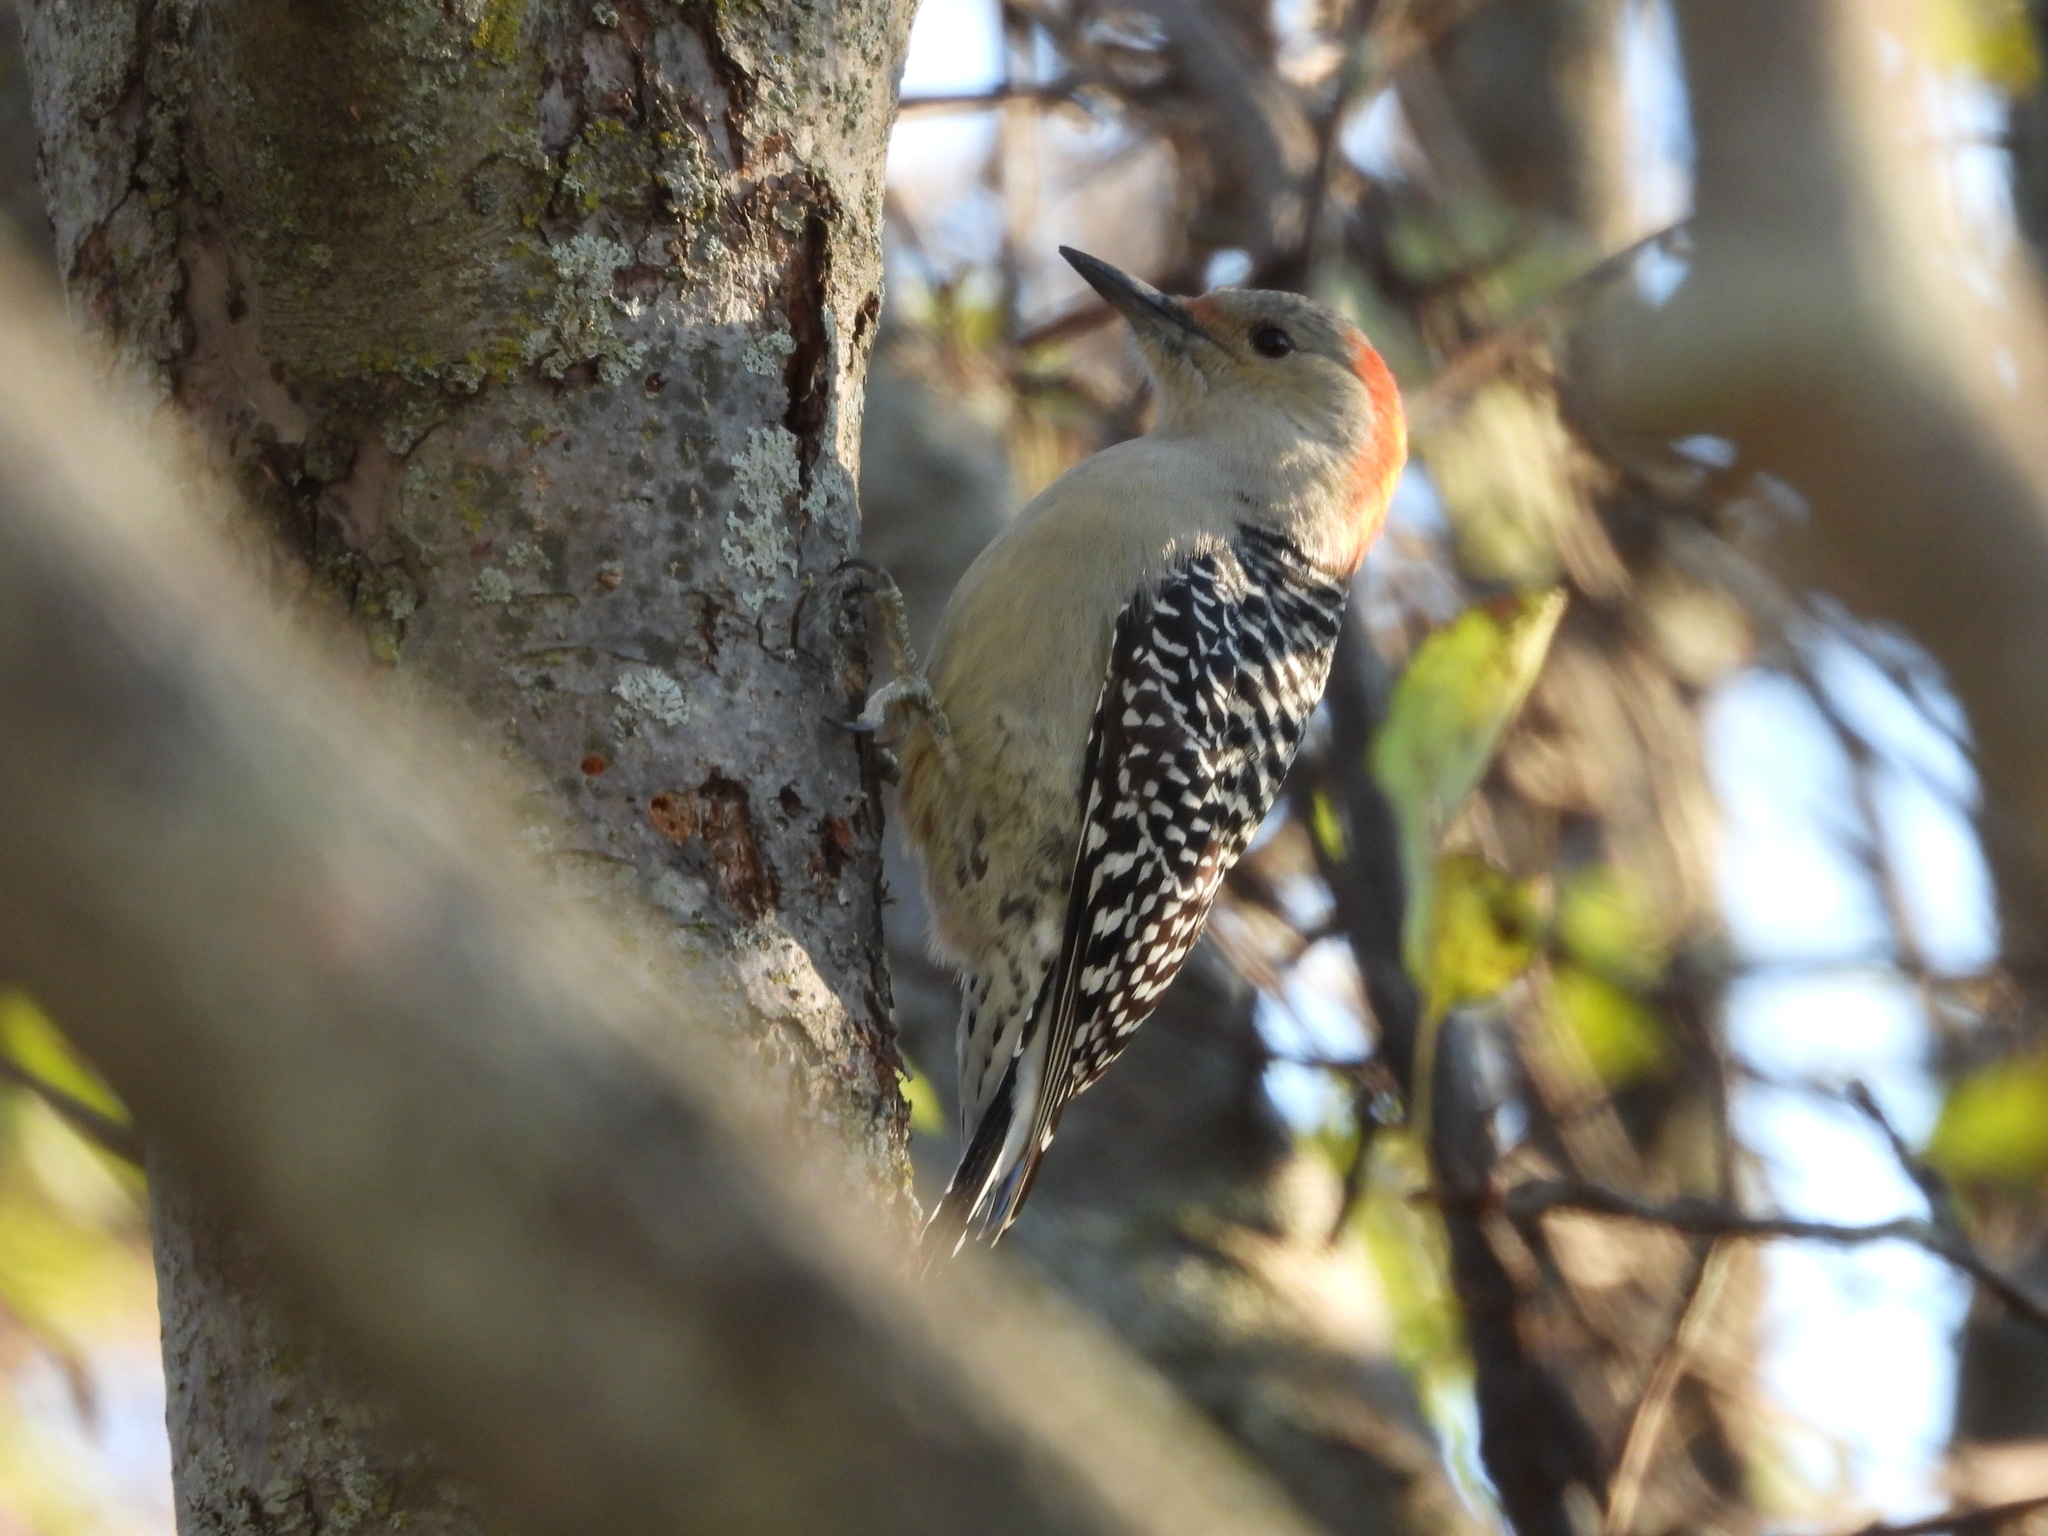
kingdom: Animalia
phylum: Chordata
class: Aves
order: Piciformes
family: Picidae
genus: Melanerpes
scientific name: Melanerpes carolinus
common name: Red-bellied woodpecker
